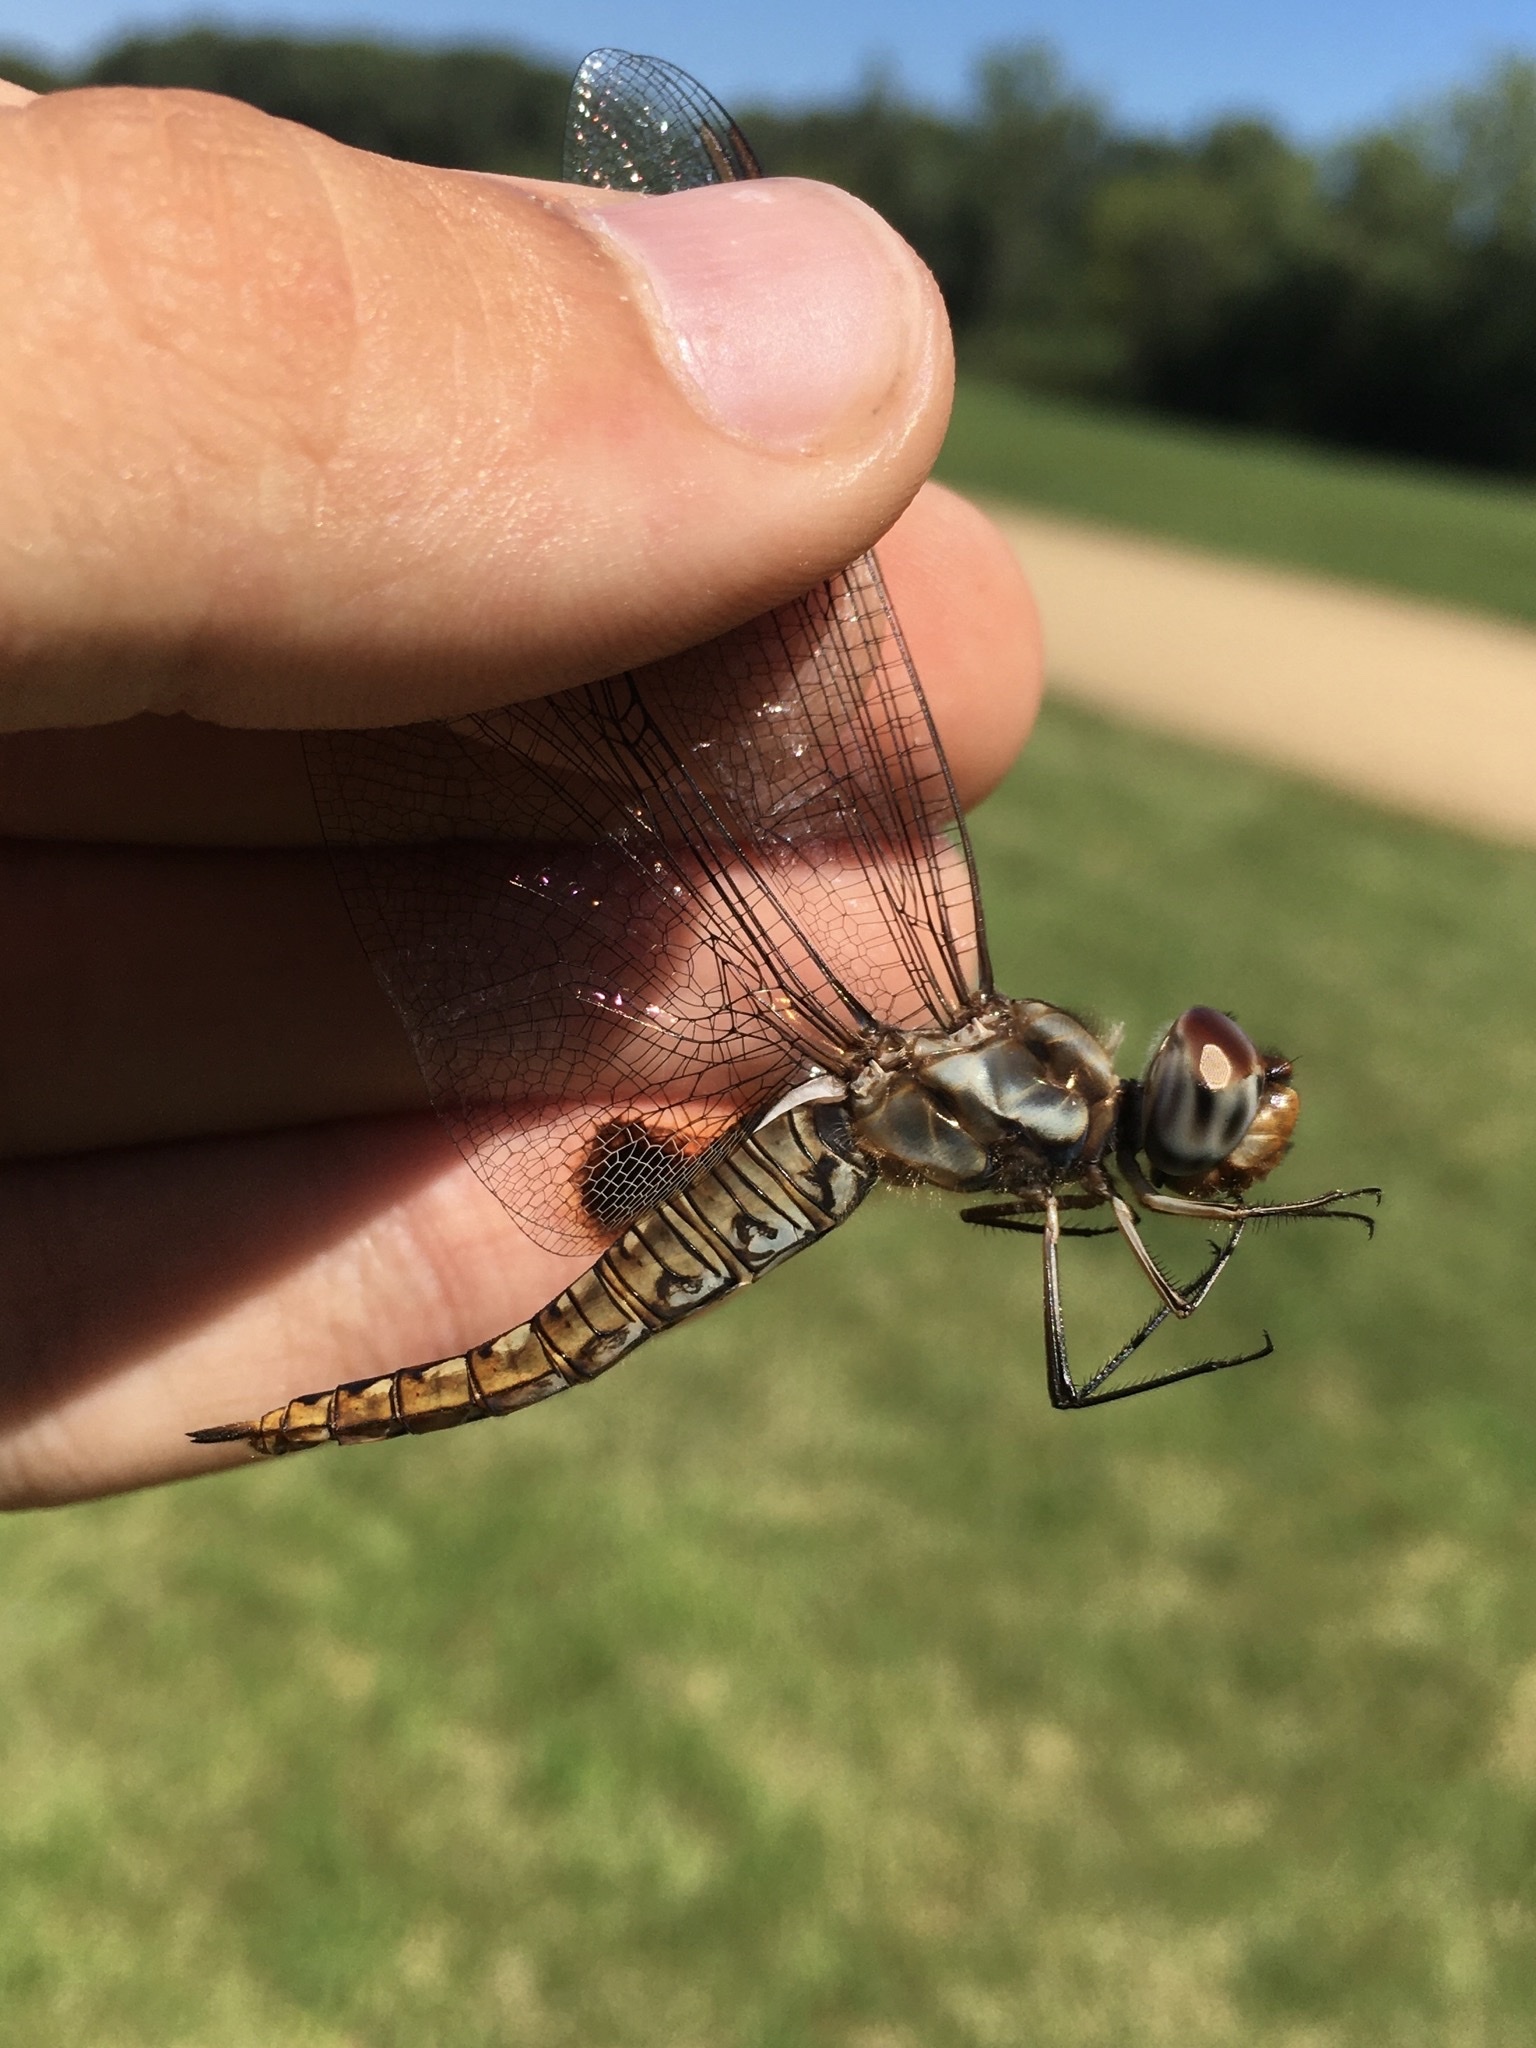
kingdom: Animalia
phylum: Arthropoda
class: Insecta
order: Odonata
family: Libellulidae
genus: Pantala
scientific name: Pantala hymenaea
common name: Spot-winged glider
